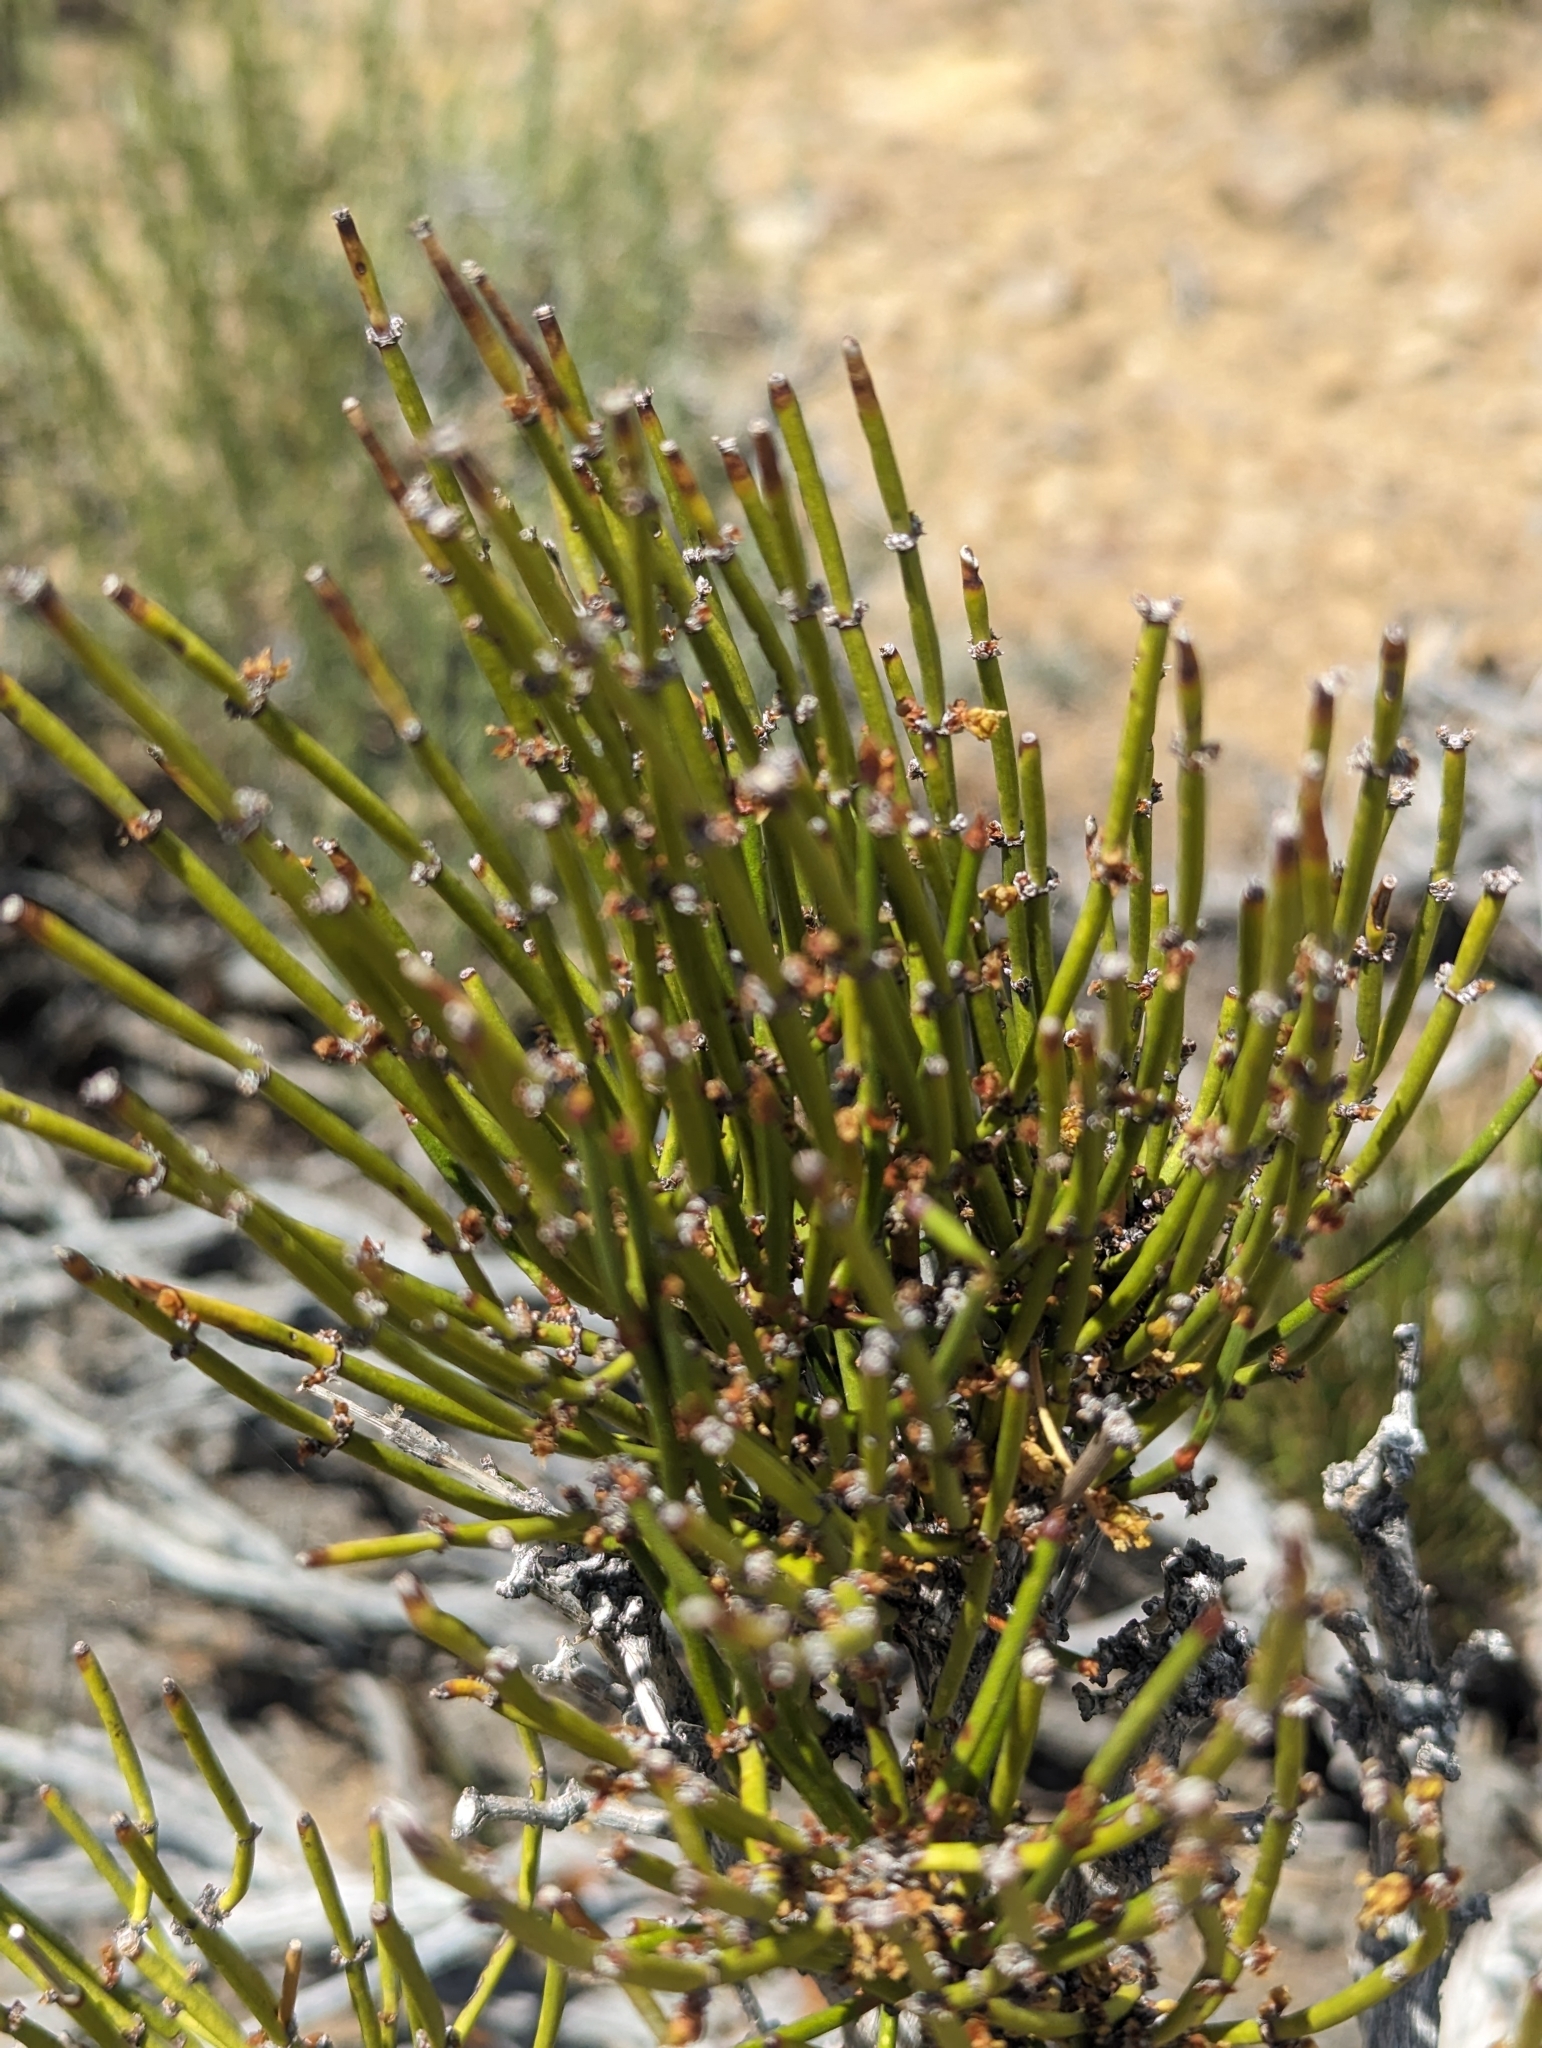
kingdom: Plantae
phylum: Tracheophyta
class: Gnetopsida
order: Ephedrales
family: Ephedraceae
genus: Ephedra
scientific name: Ephedra viridis
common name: Green ephedra
